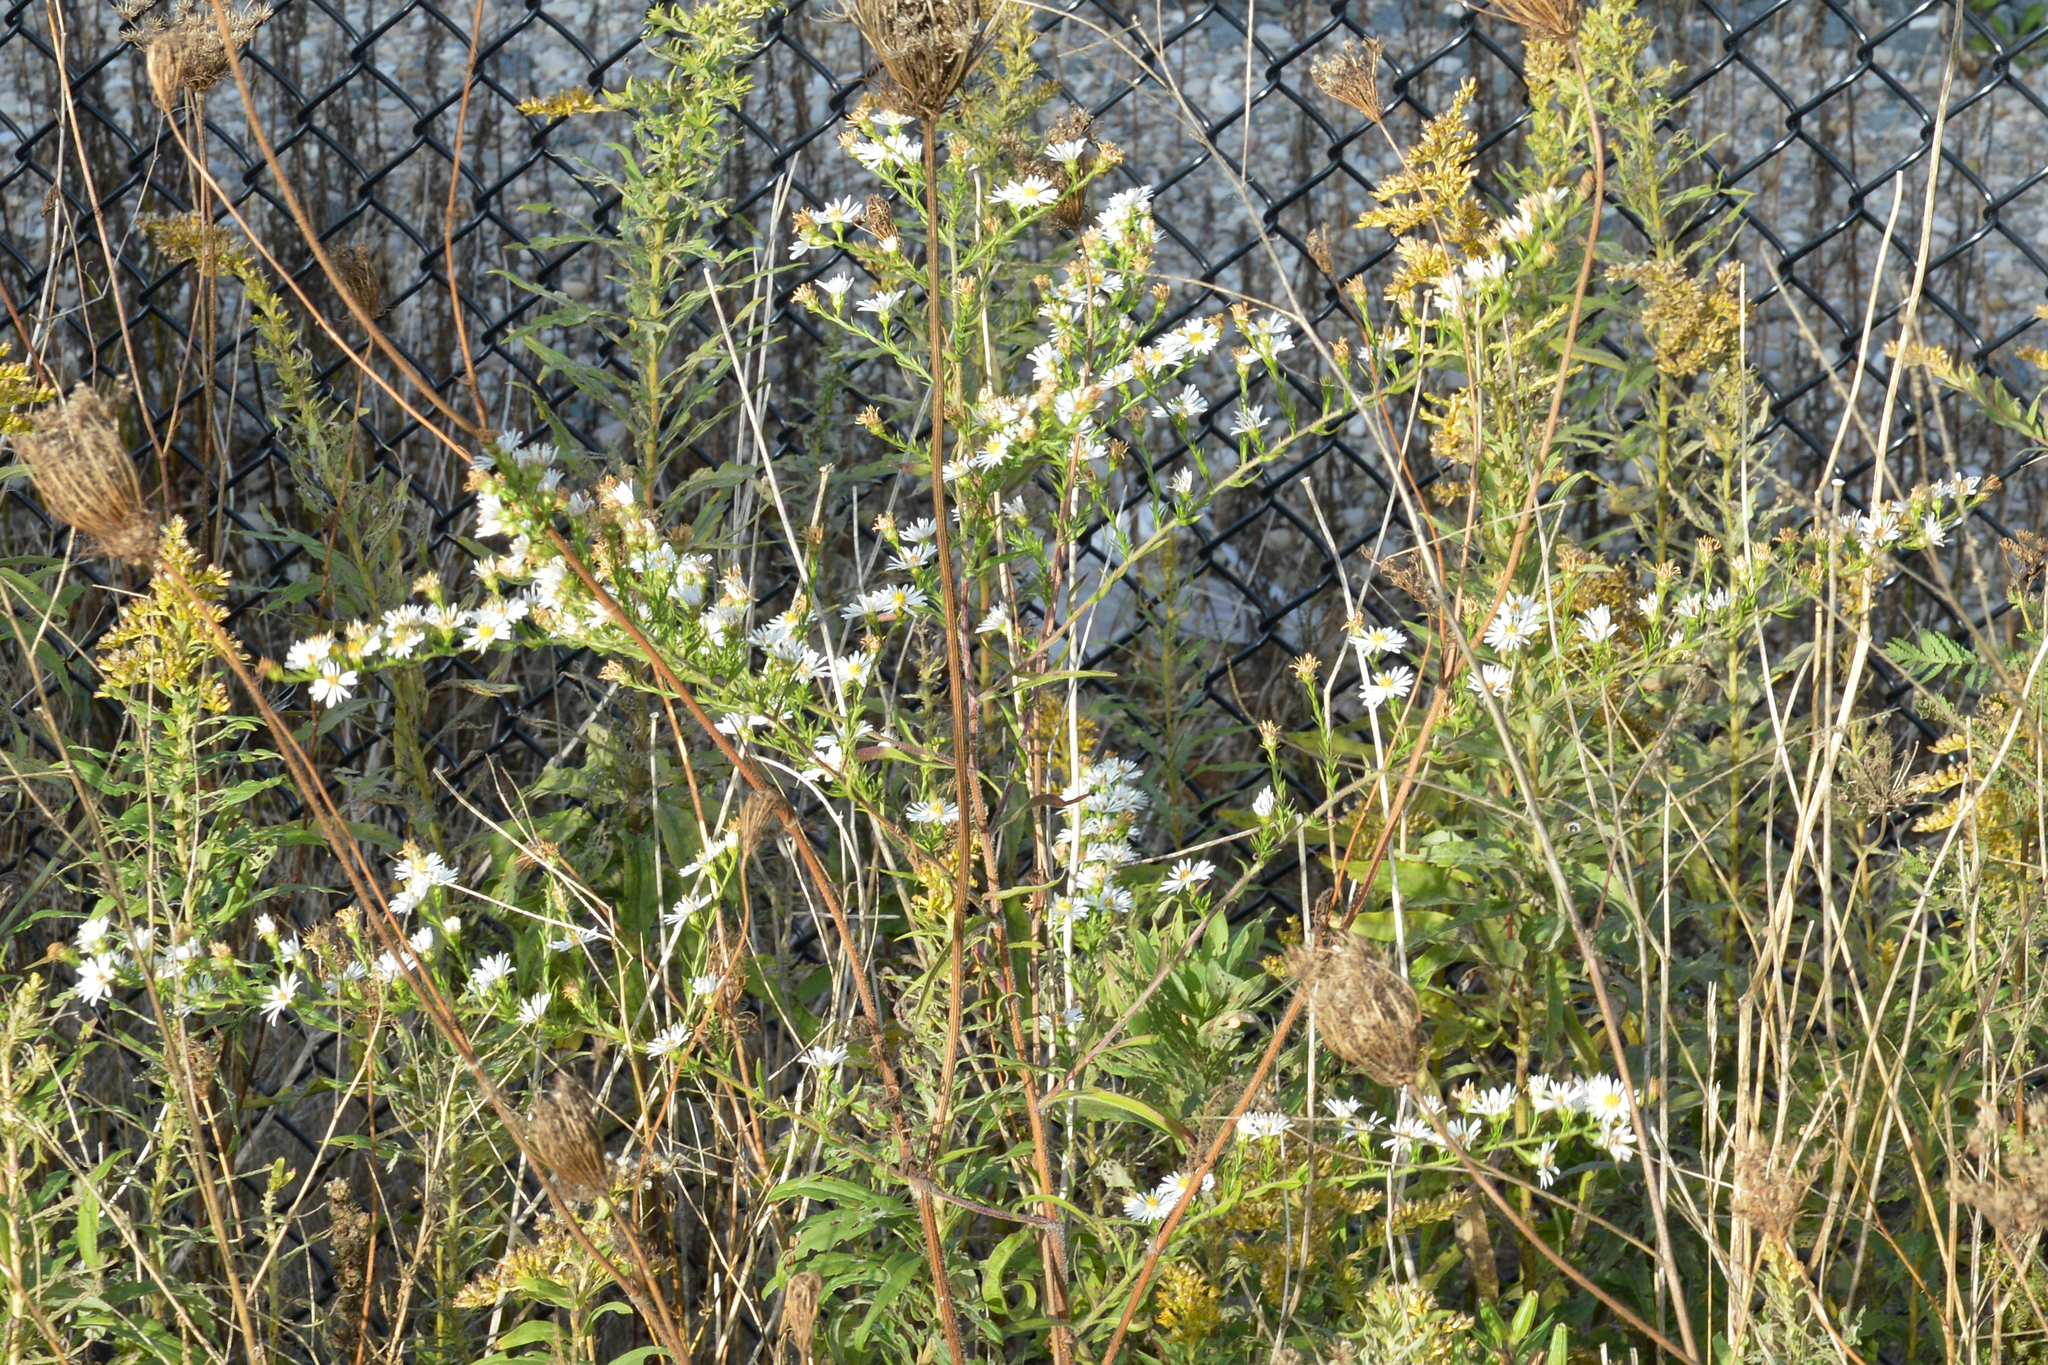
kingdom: Plantae
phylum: Tracheophyta
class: Magnoliopsida
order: Asterales
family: Asteraceae
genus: Symphyotrichum
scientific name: Symphyotrichum pilosum
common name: Awl aster
